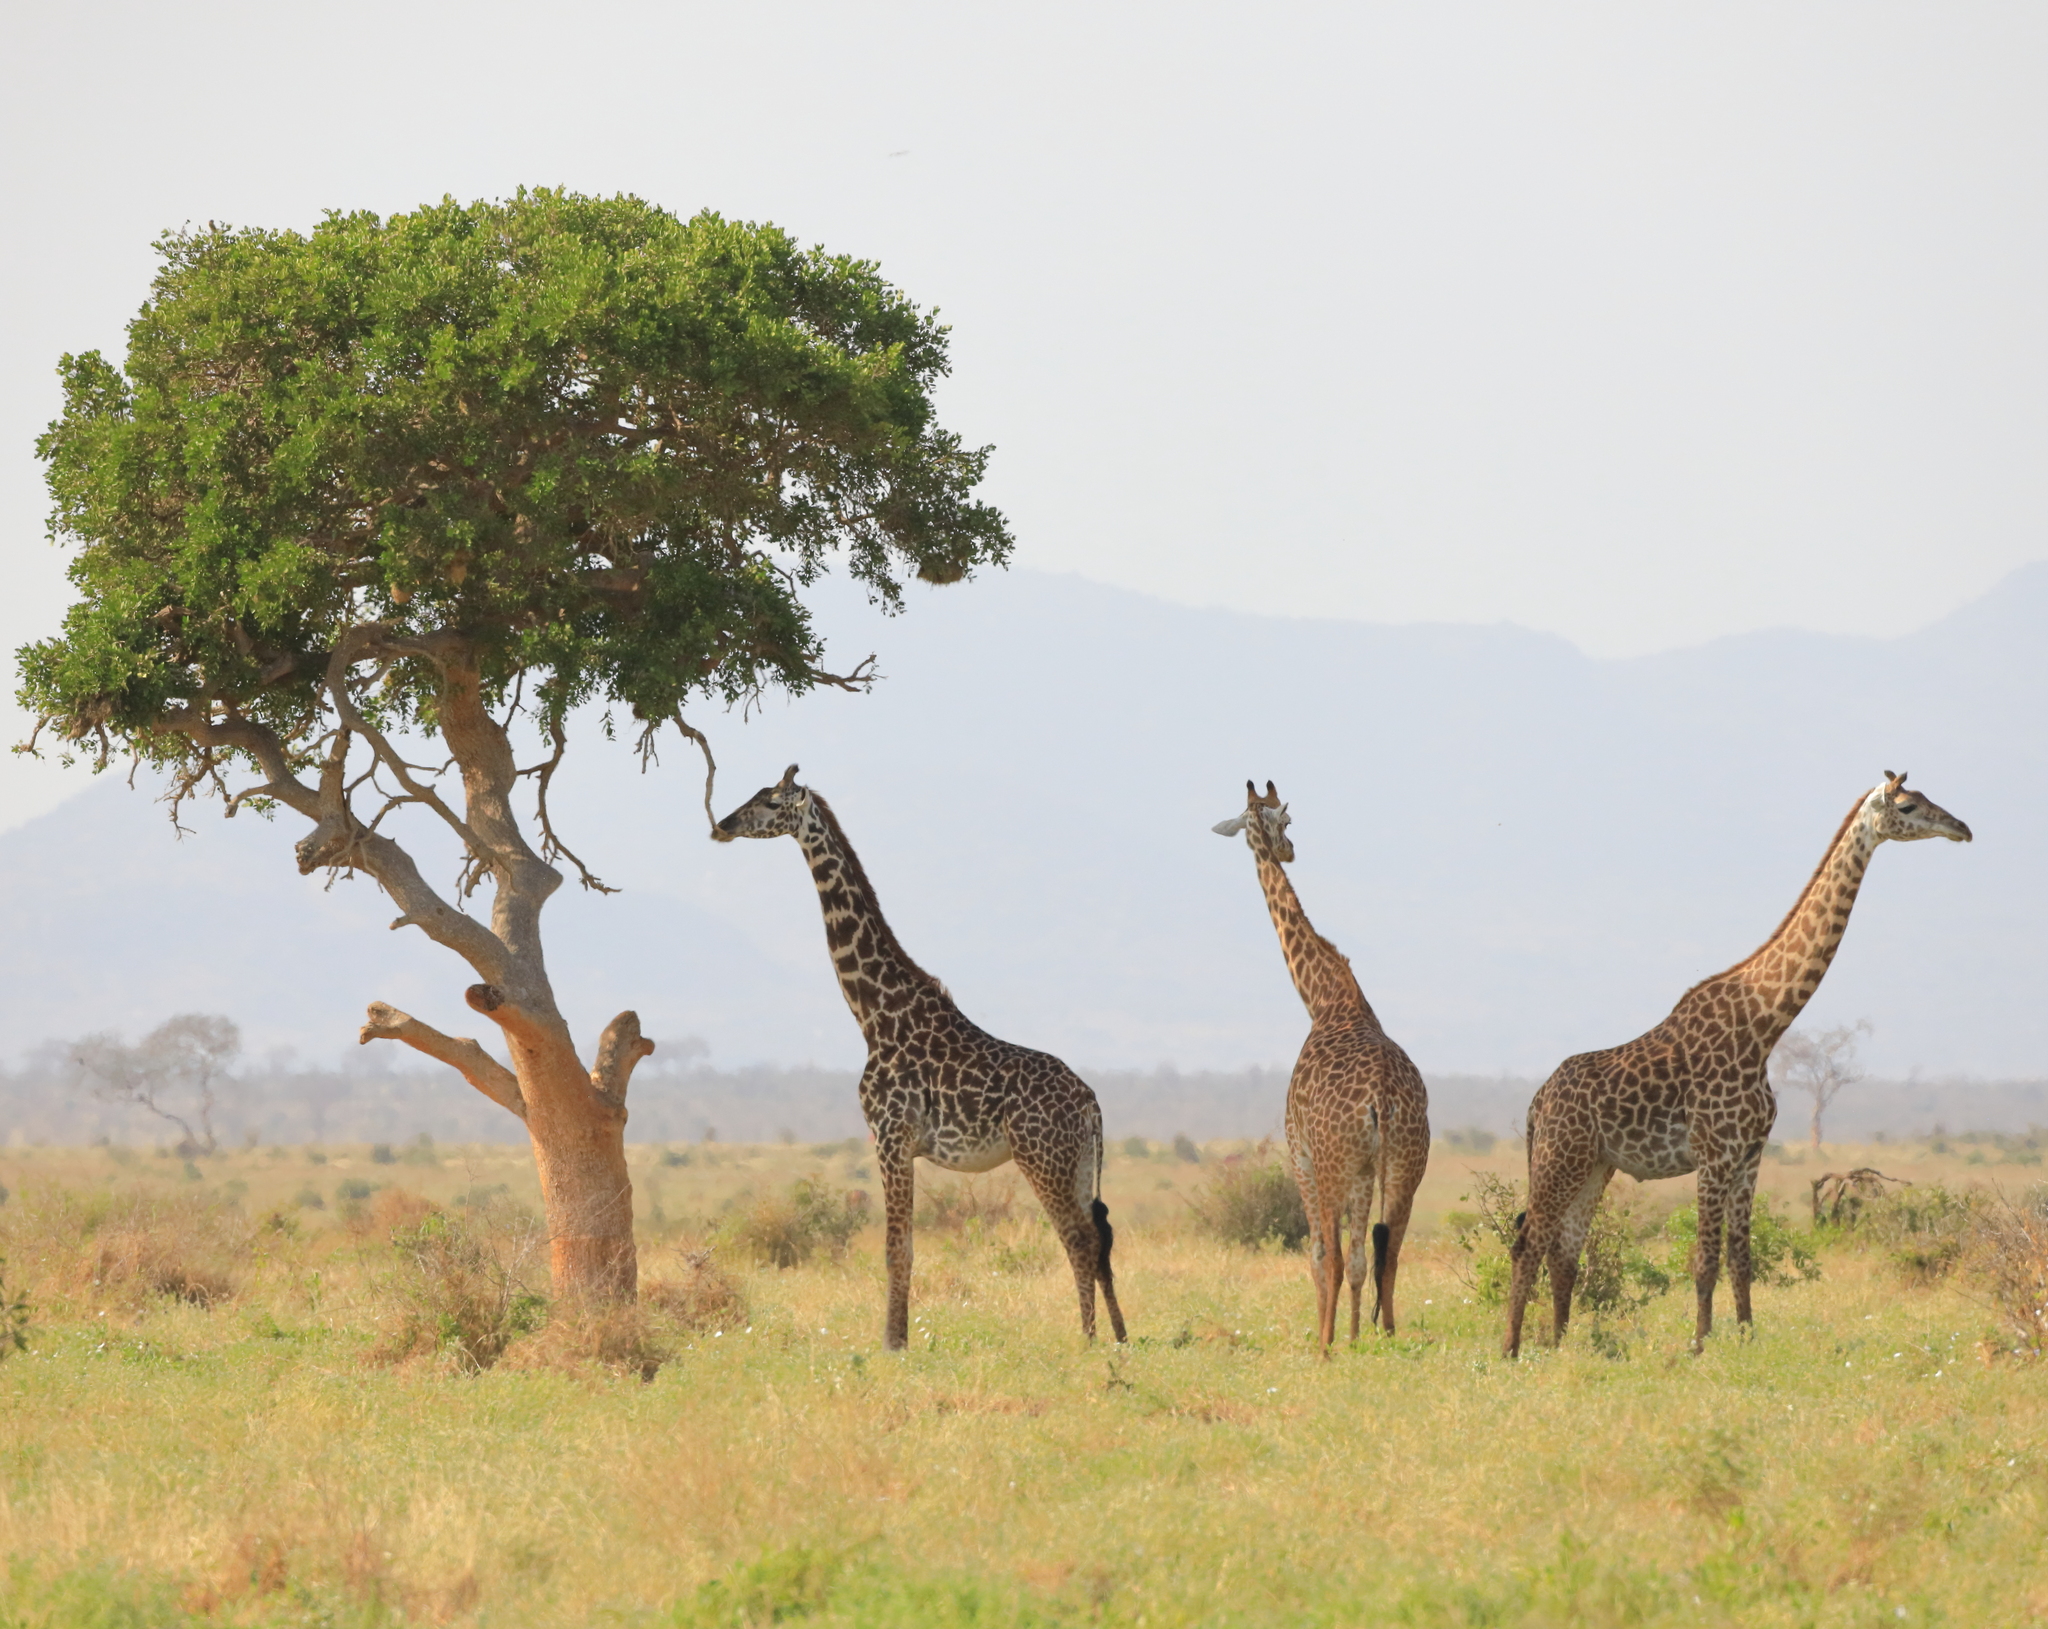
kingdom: Animalia
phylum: Chordata
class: Mammalia
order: Artiodactyla
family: Giraffidae
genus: Giraffa
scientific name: Giraffa tippelskirchi
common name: Masai giraffe
